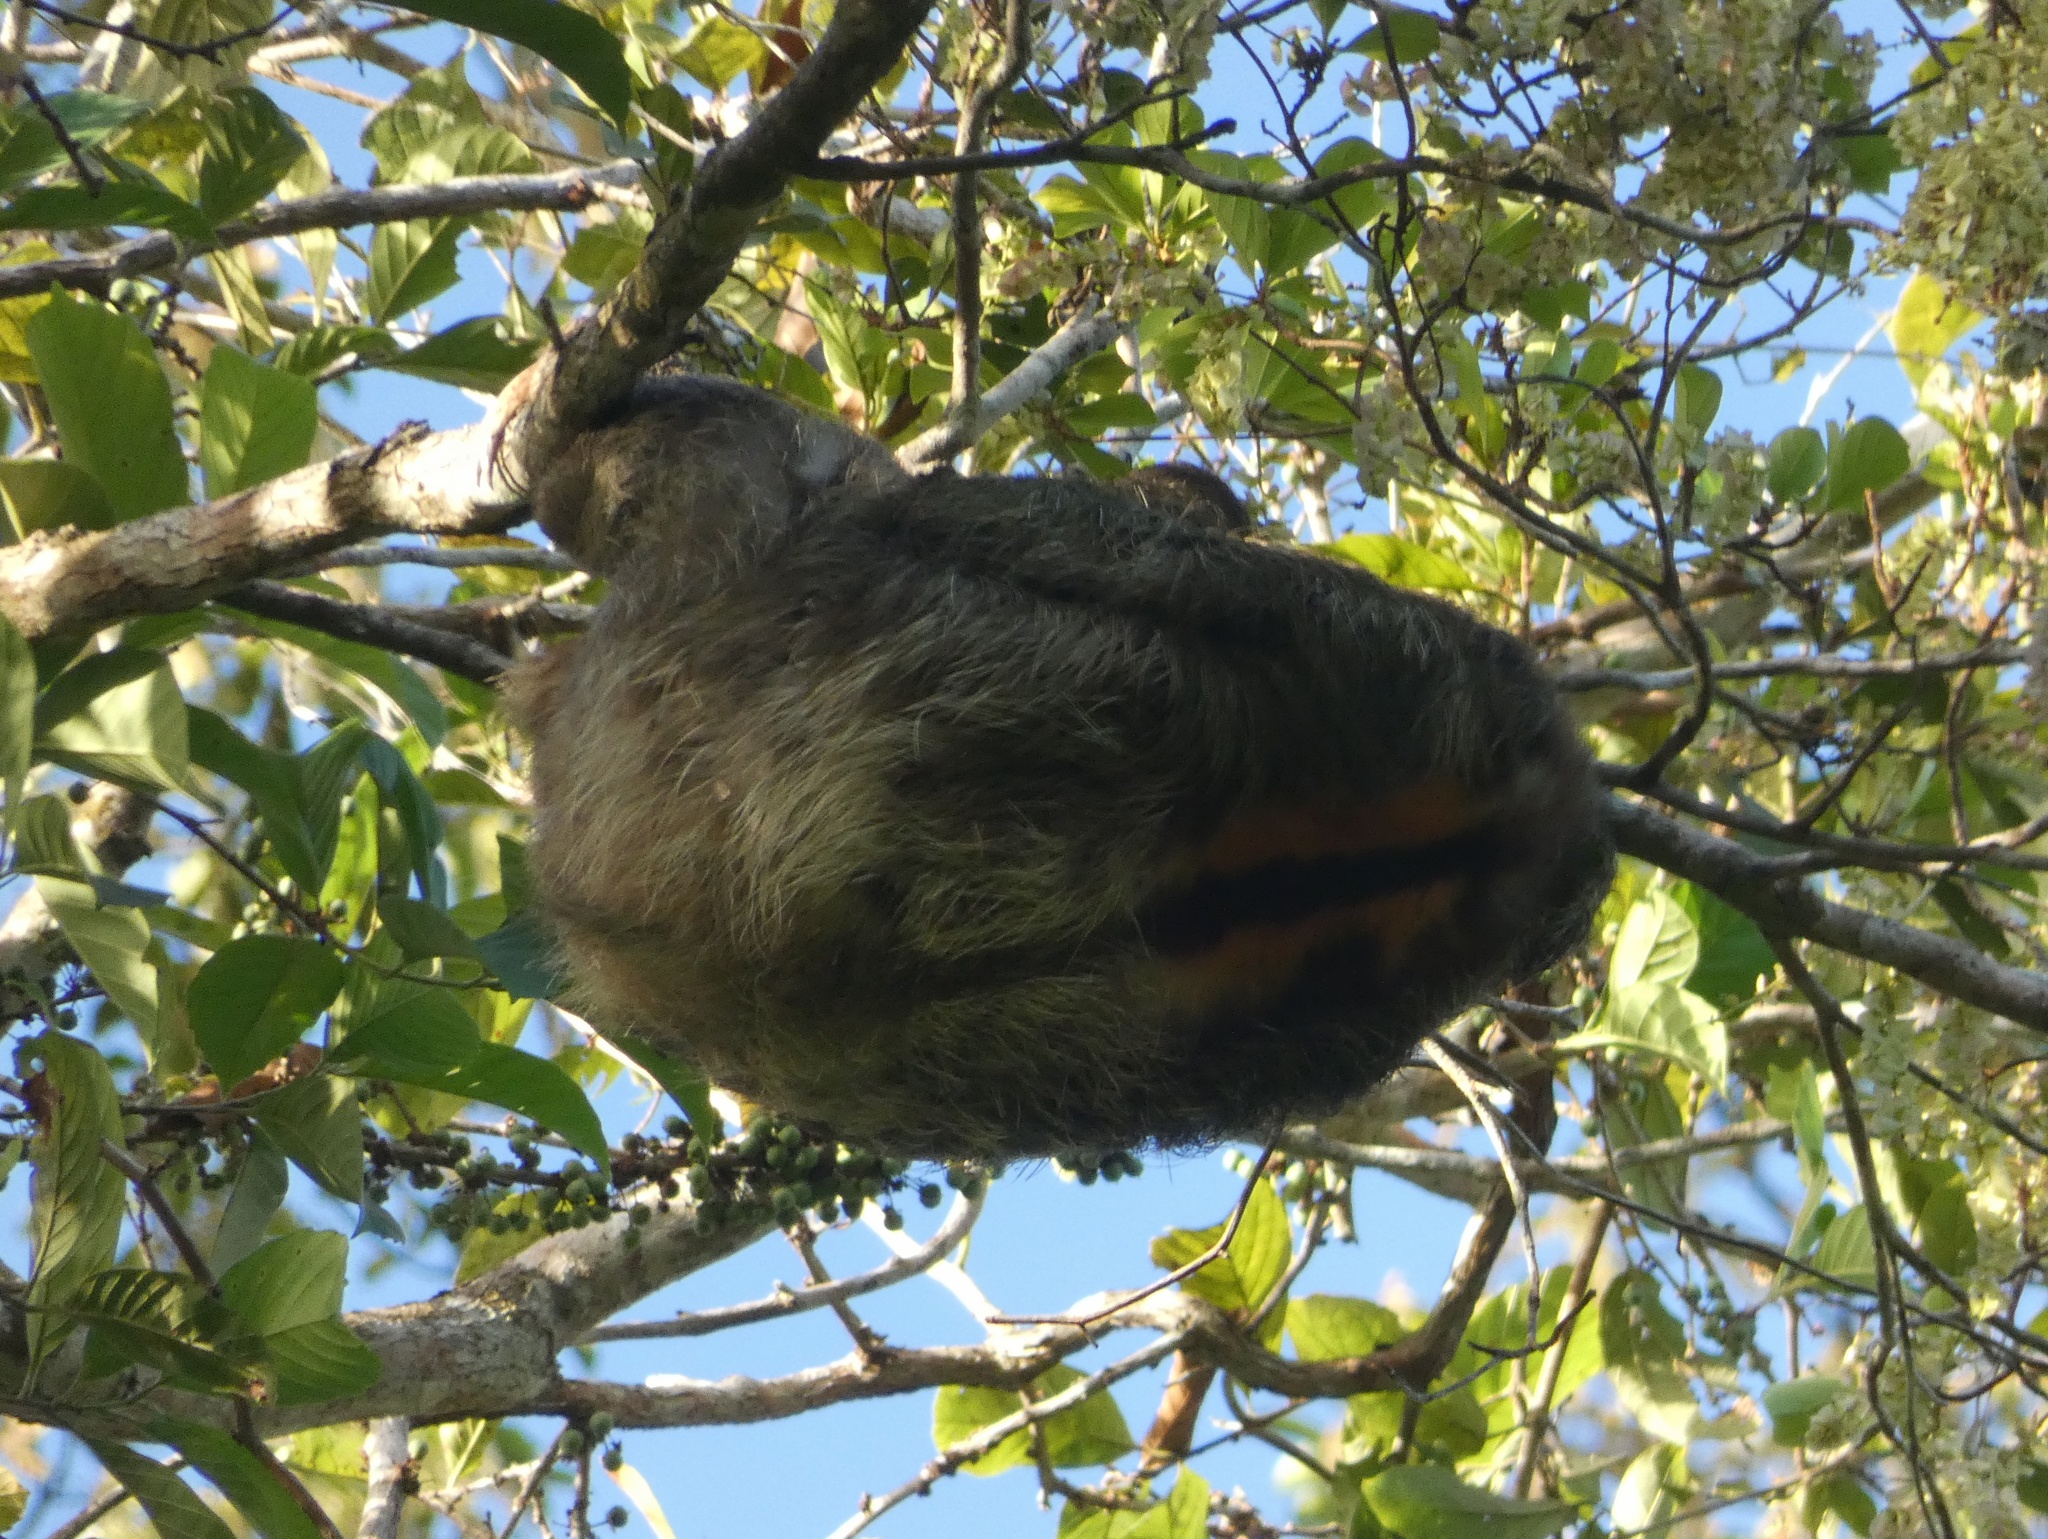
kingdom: Animalia
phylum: Chordata
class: Mammalia
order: Pilosa
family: Bradypodidae
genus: Bradypus
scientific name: Bradypus variegatus
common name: Brown-throated three-toed sloth
